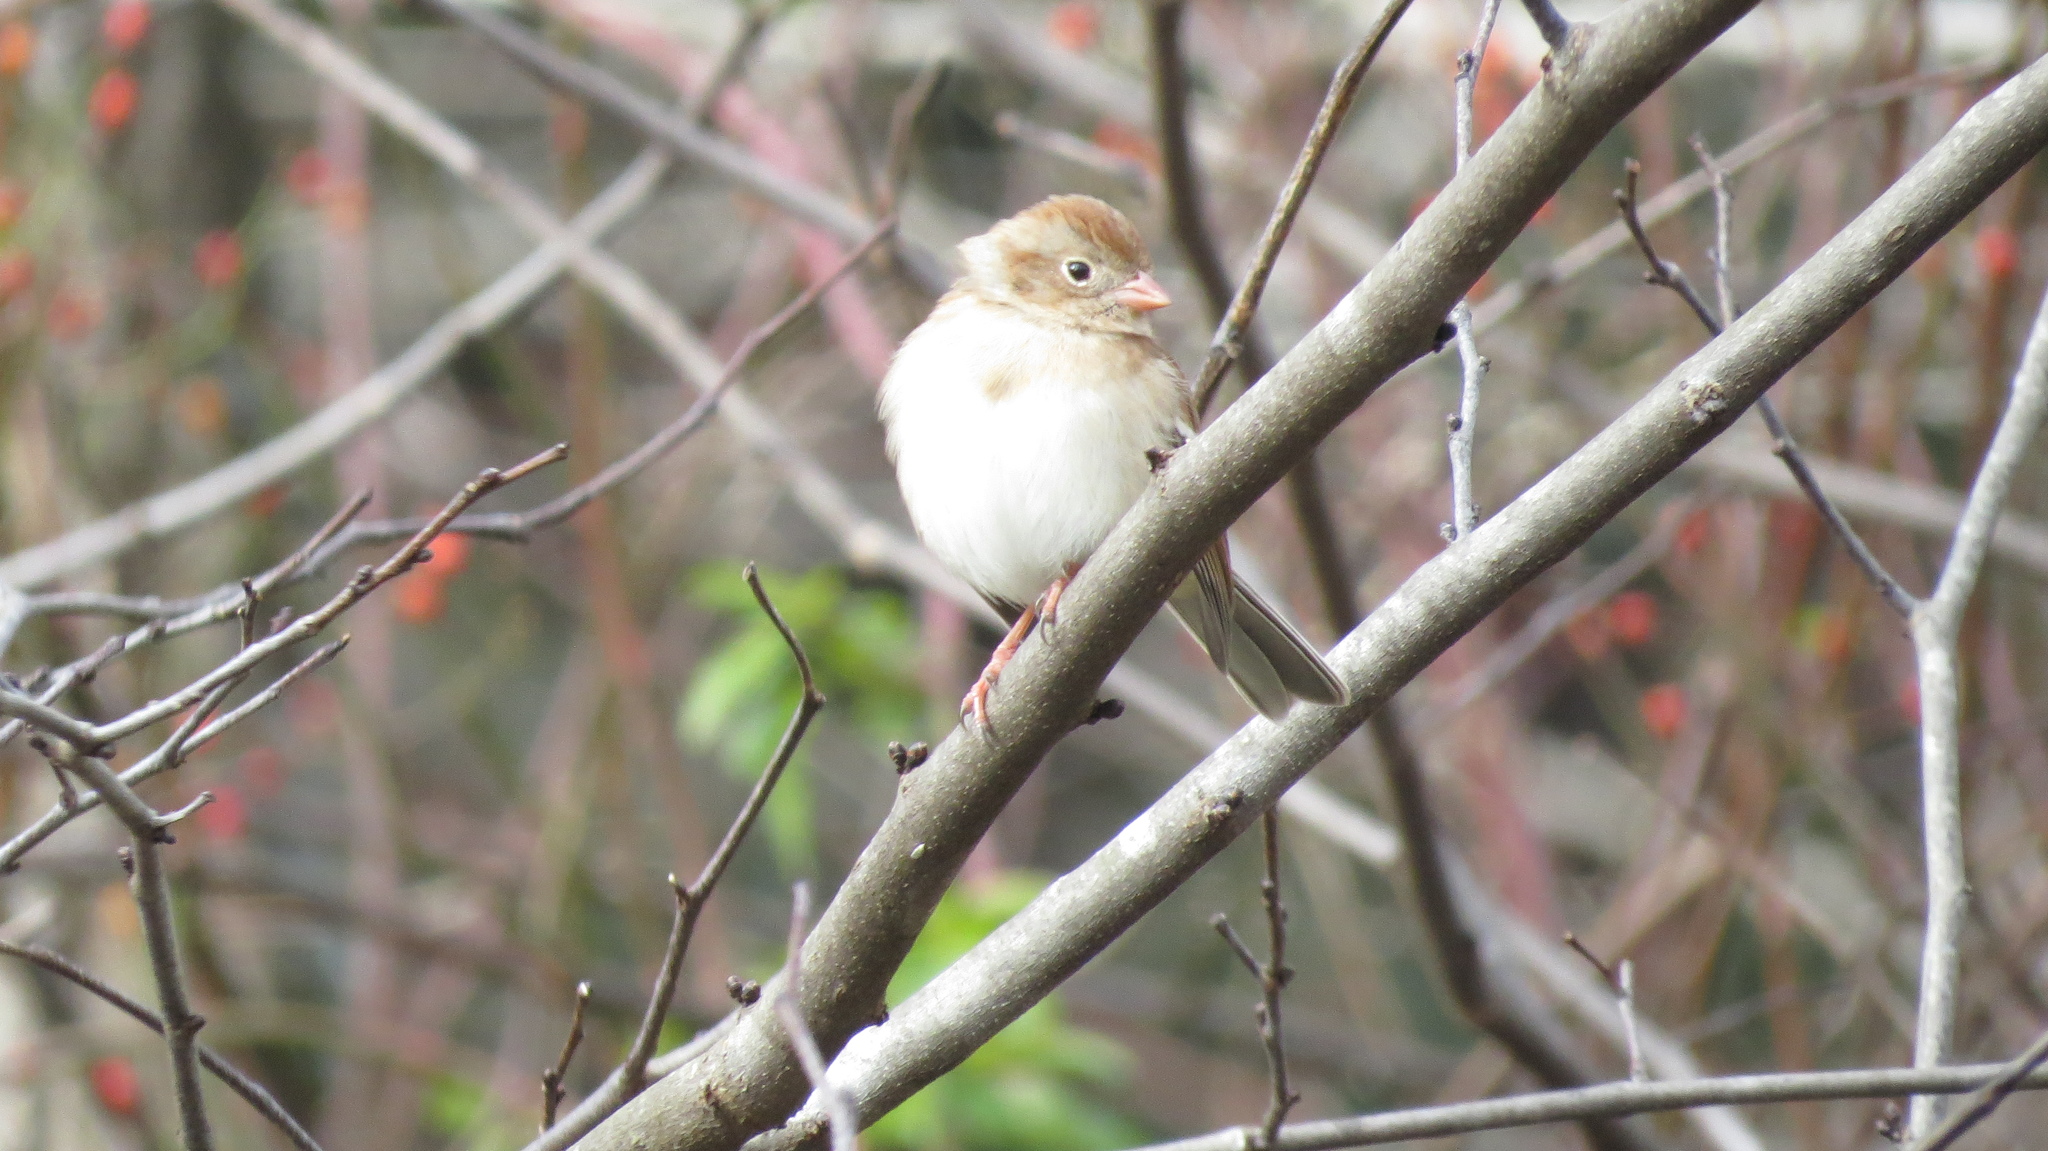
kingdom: Animalia
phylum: Chordata
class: Aves
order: Passeriformes
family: Passerellidae
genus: Spizella
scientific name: Spizella pusilla
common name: Field sparrow
